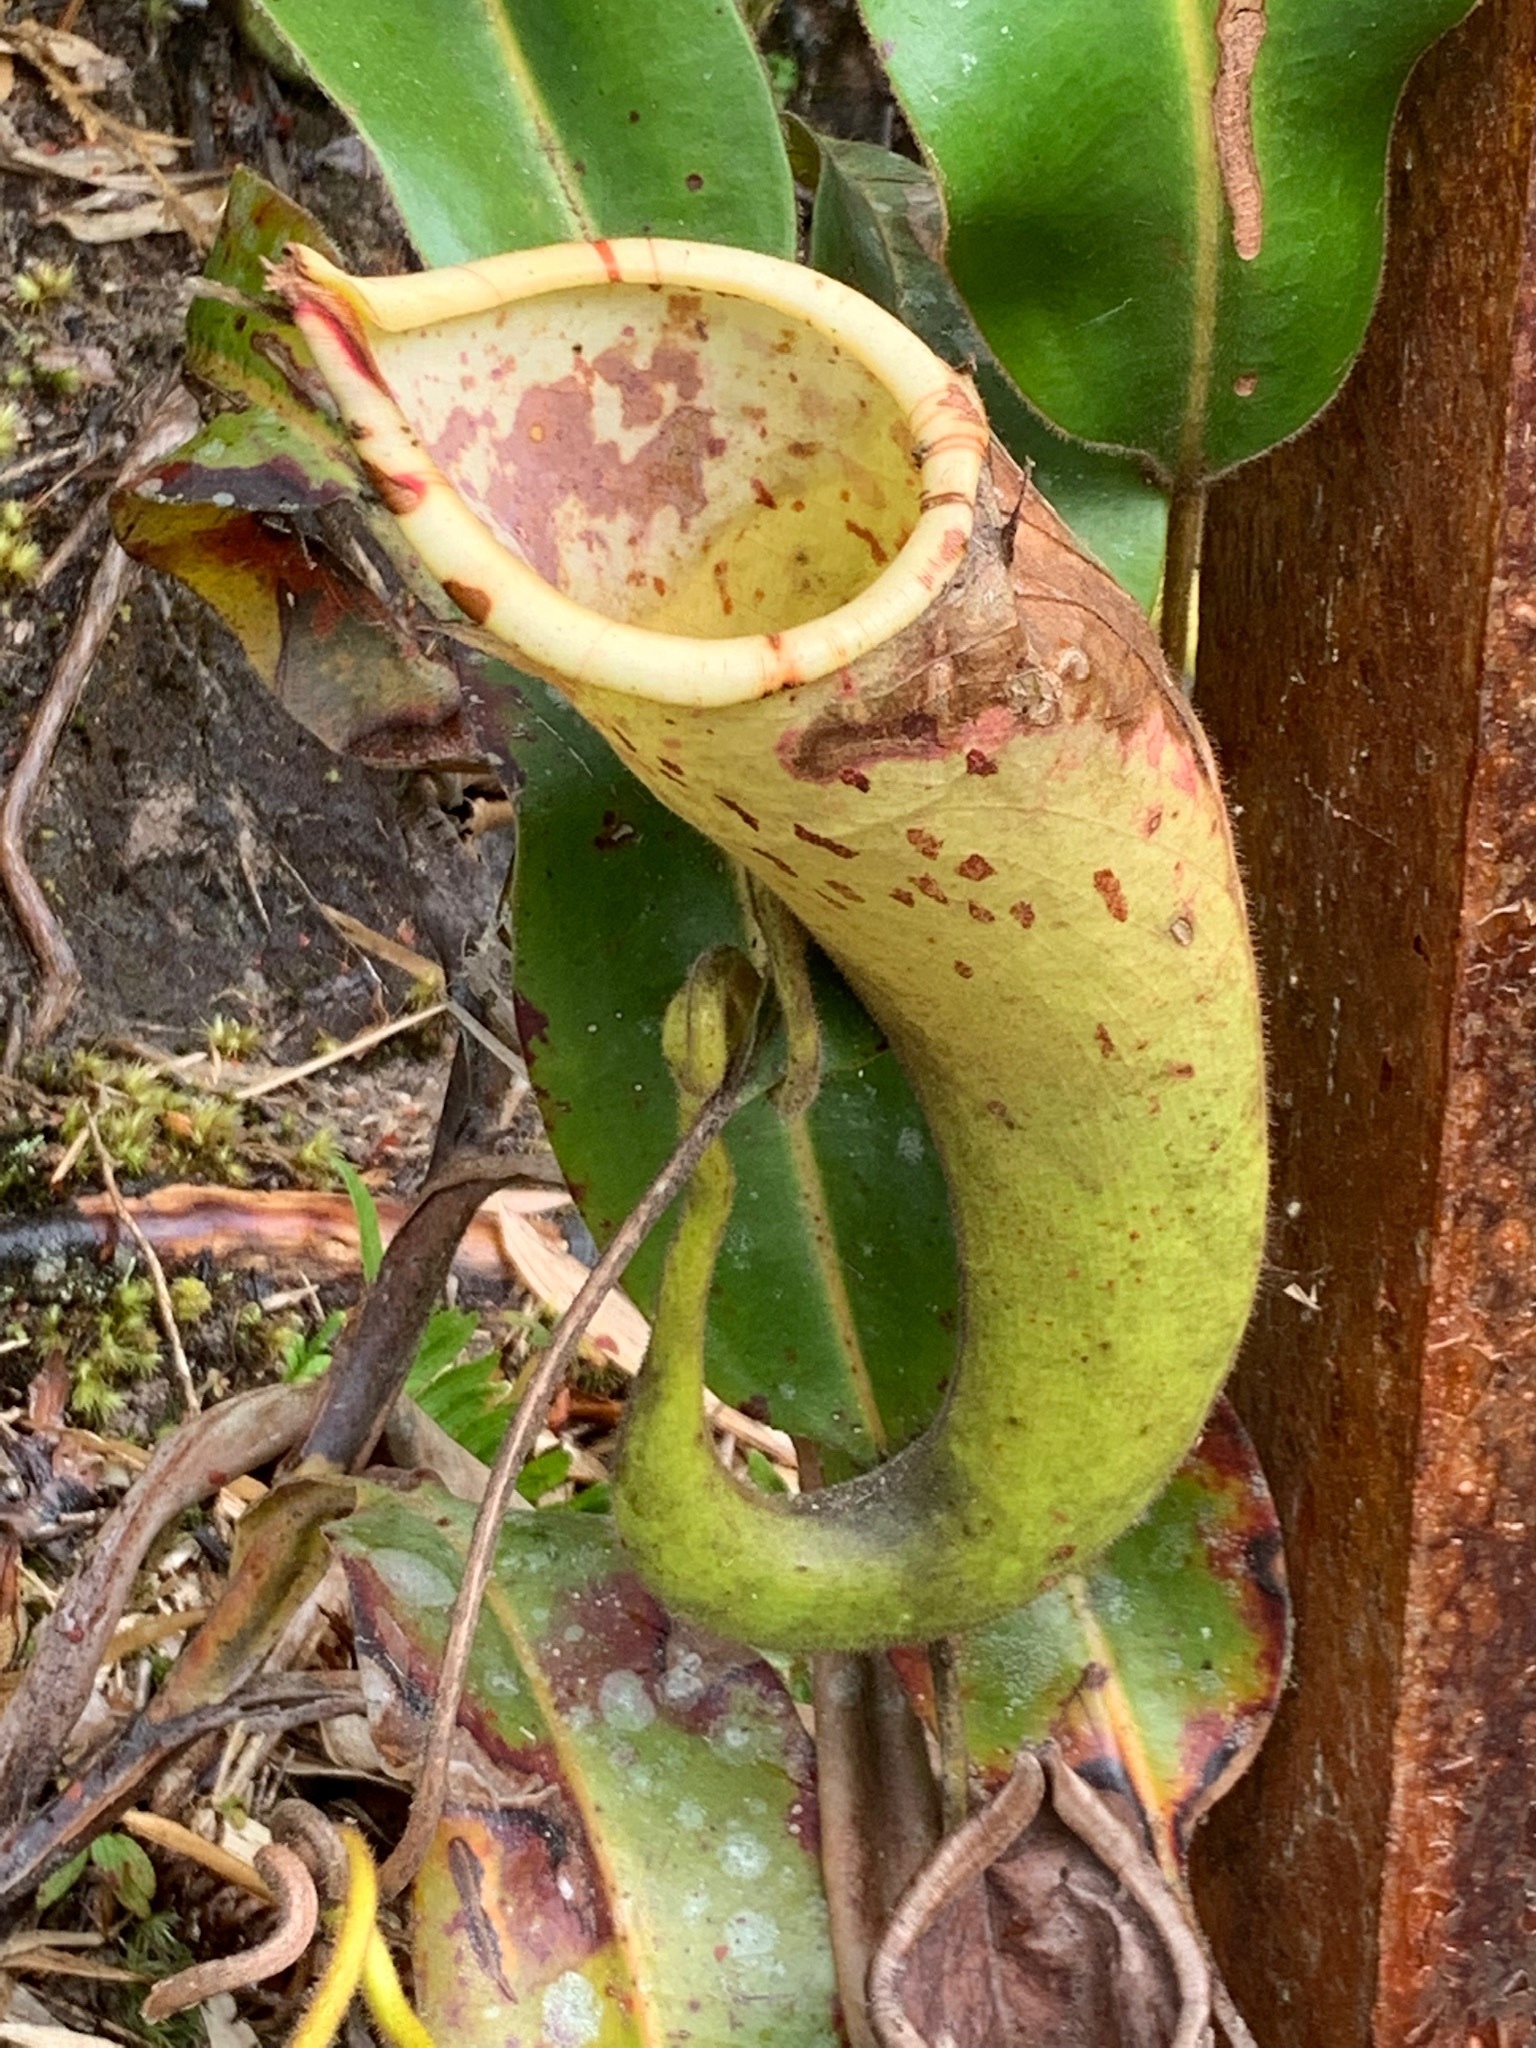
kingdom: Plantae
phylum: Tracheophyta
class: Magnoliopsida
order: Caryophyllales
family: Nepenthaceae
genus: Nepenthes
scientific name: Nepenthes chaniana
